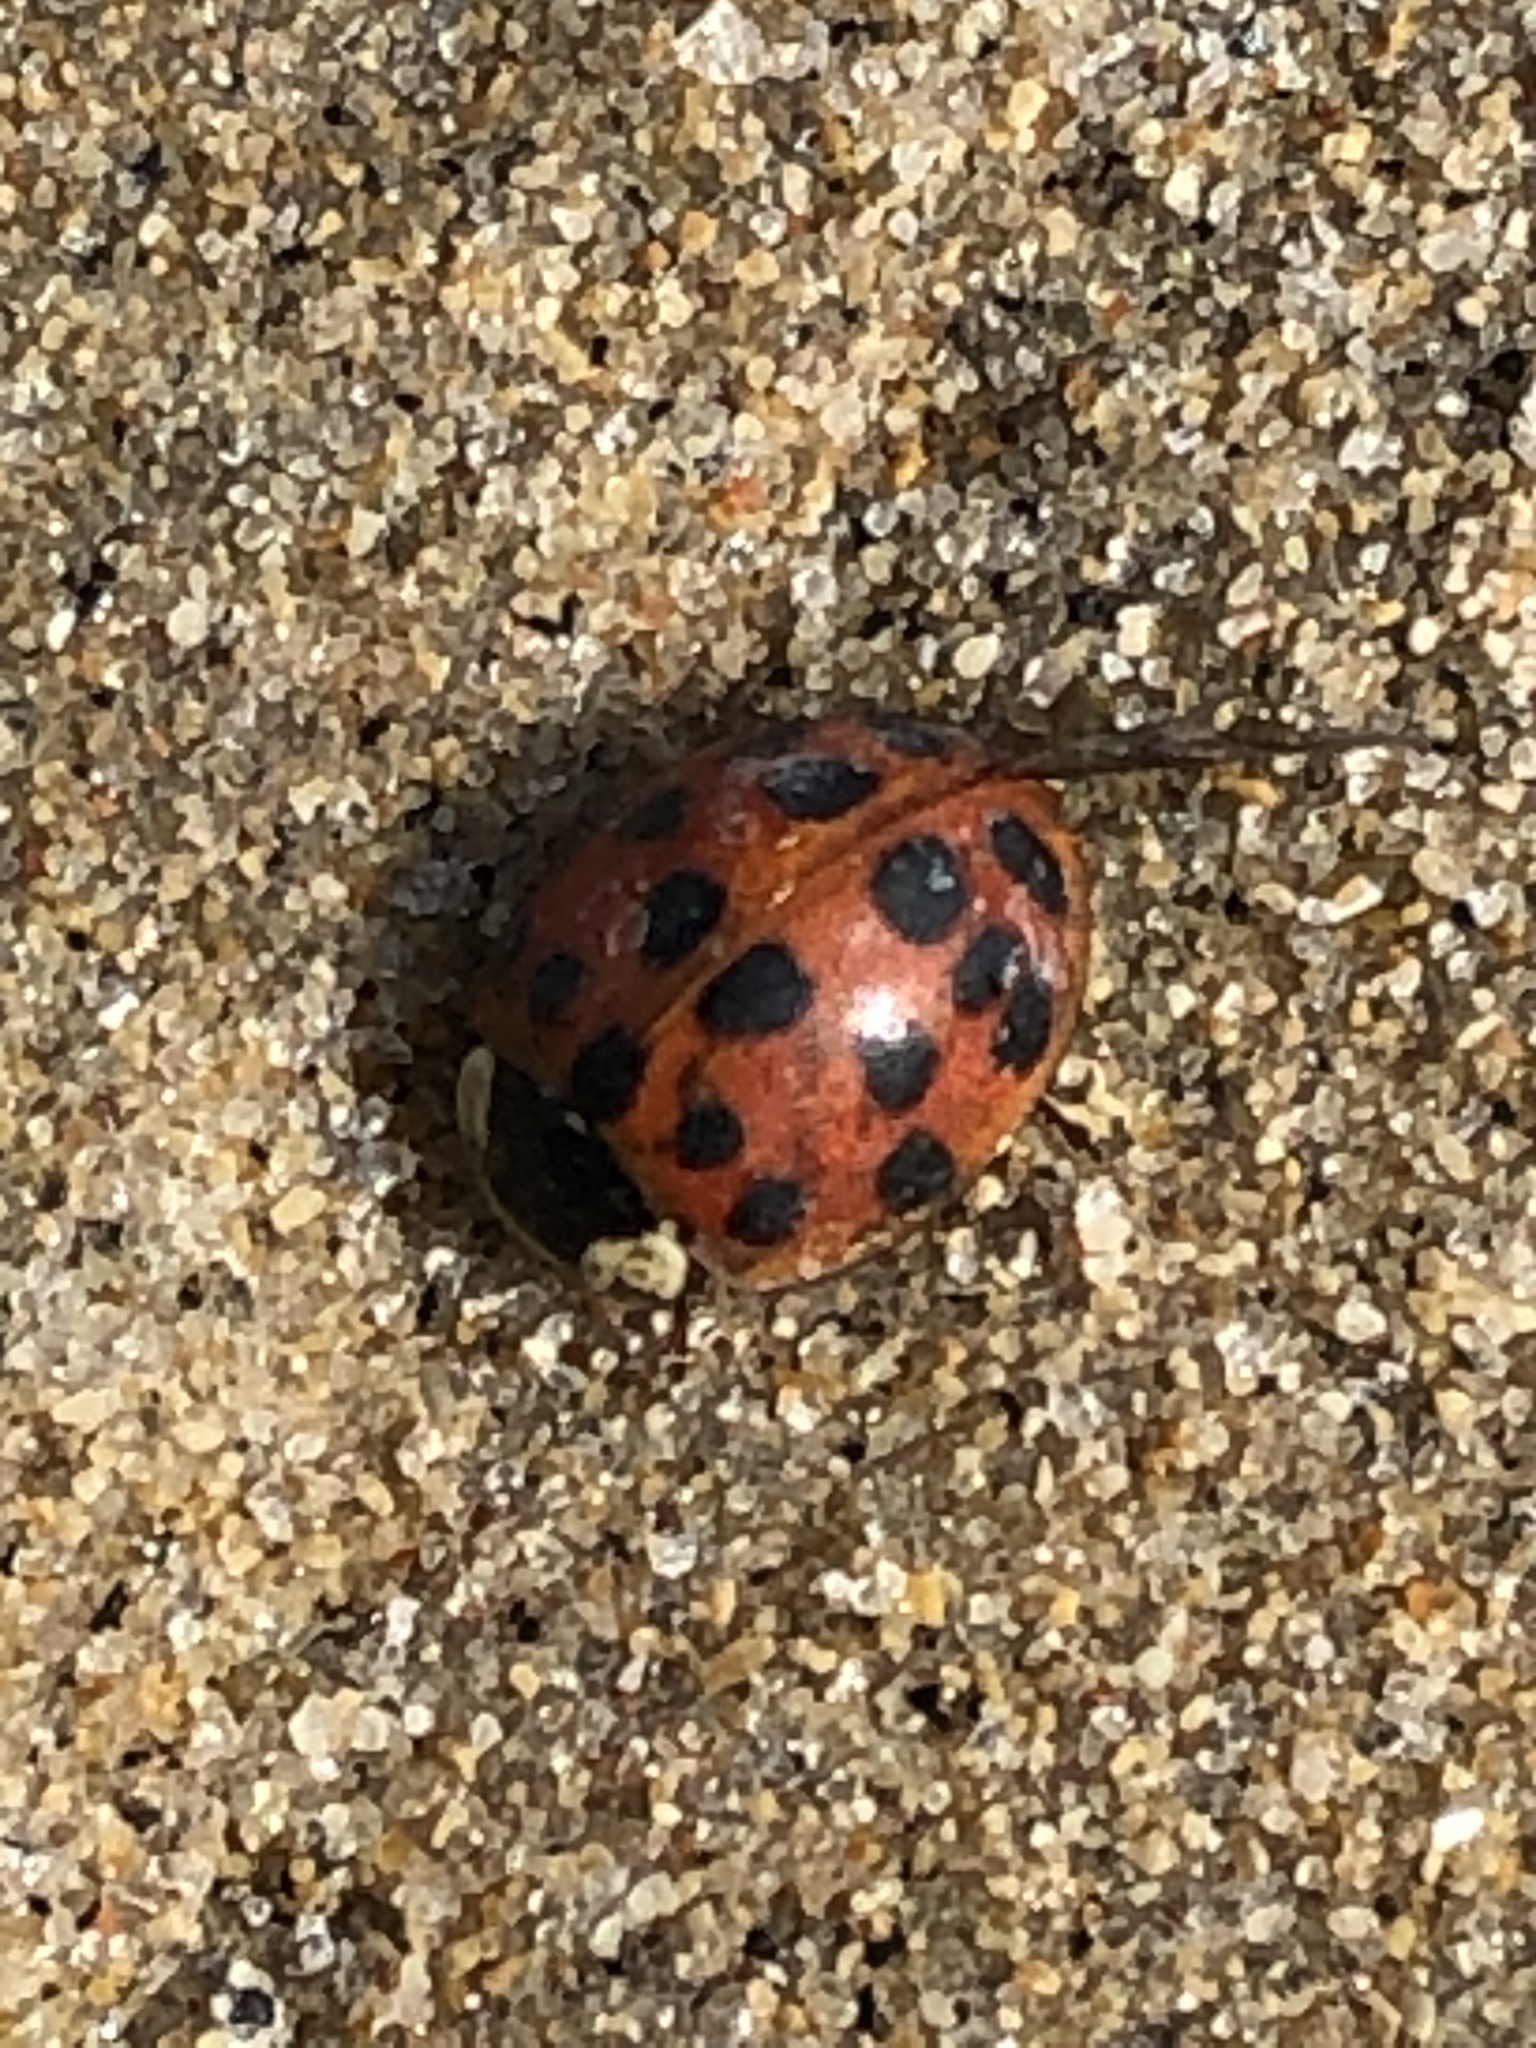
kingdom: Animalia
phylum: Arthropoda
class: Insecta
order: Coleoptera
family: Coccinellidae
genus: Harmonia
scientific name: Harmonia axyridis
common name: Harlequin ladybird
